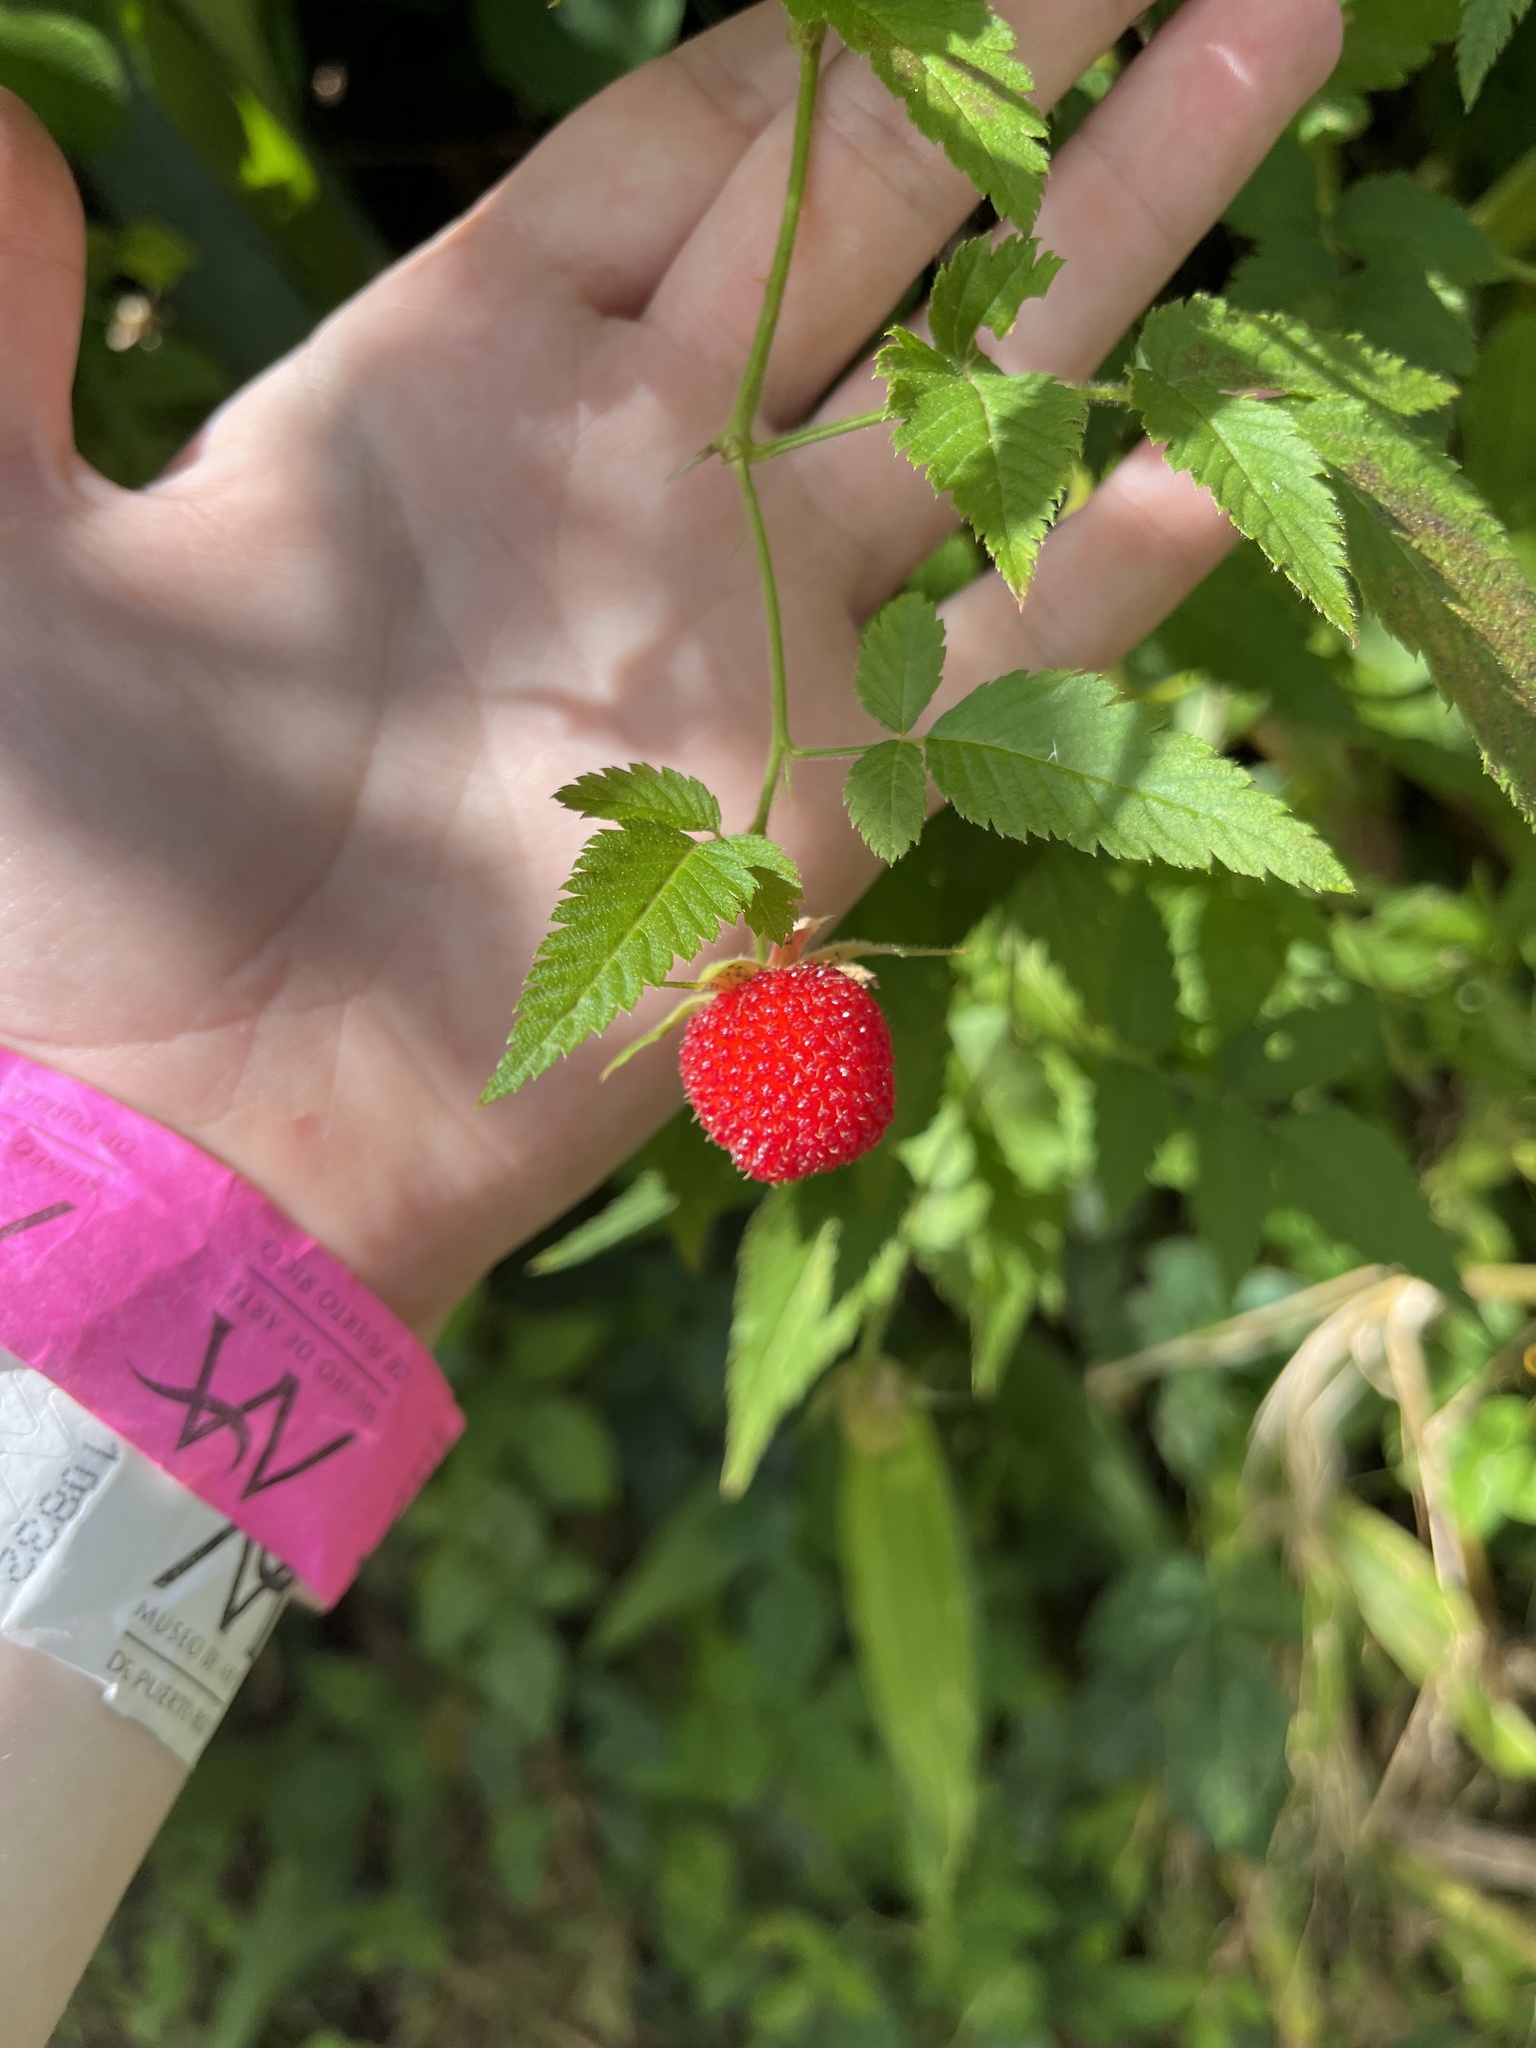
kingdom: Plantae
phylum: Tracheophyta
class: Magnoliopsida
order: Rosales
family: Rosaceae
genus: Rubus
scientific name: Rubus rosifolius
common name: Roseleaf raspberry
